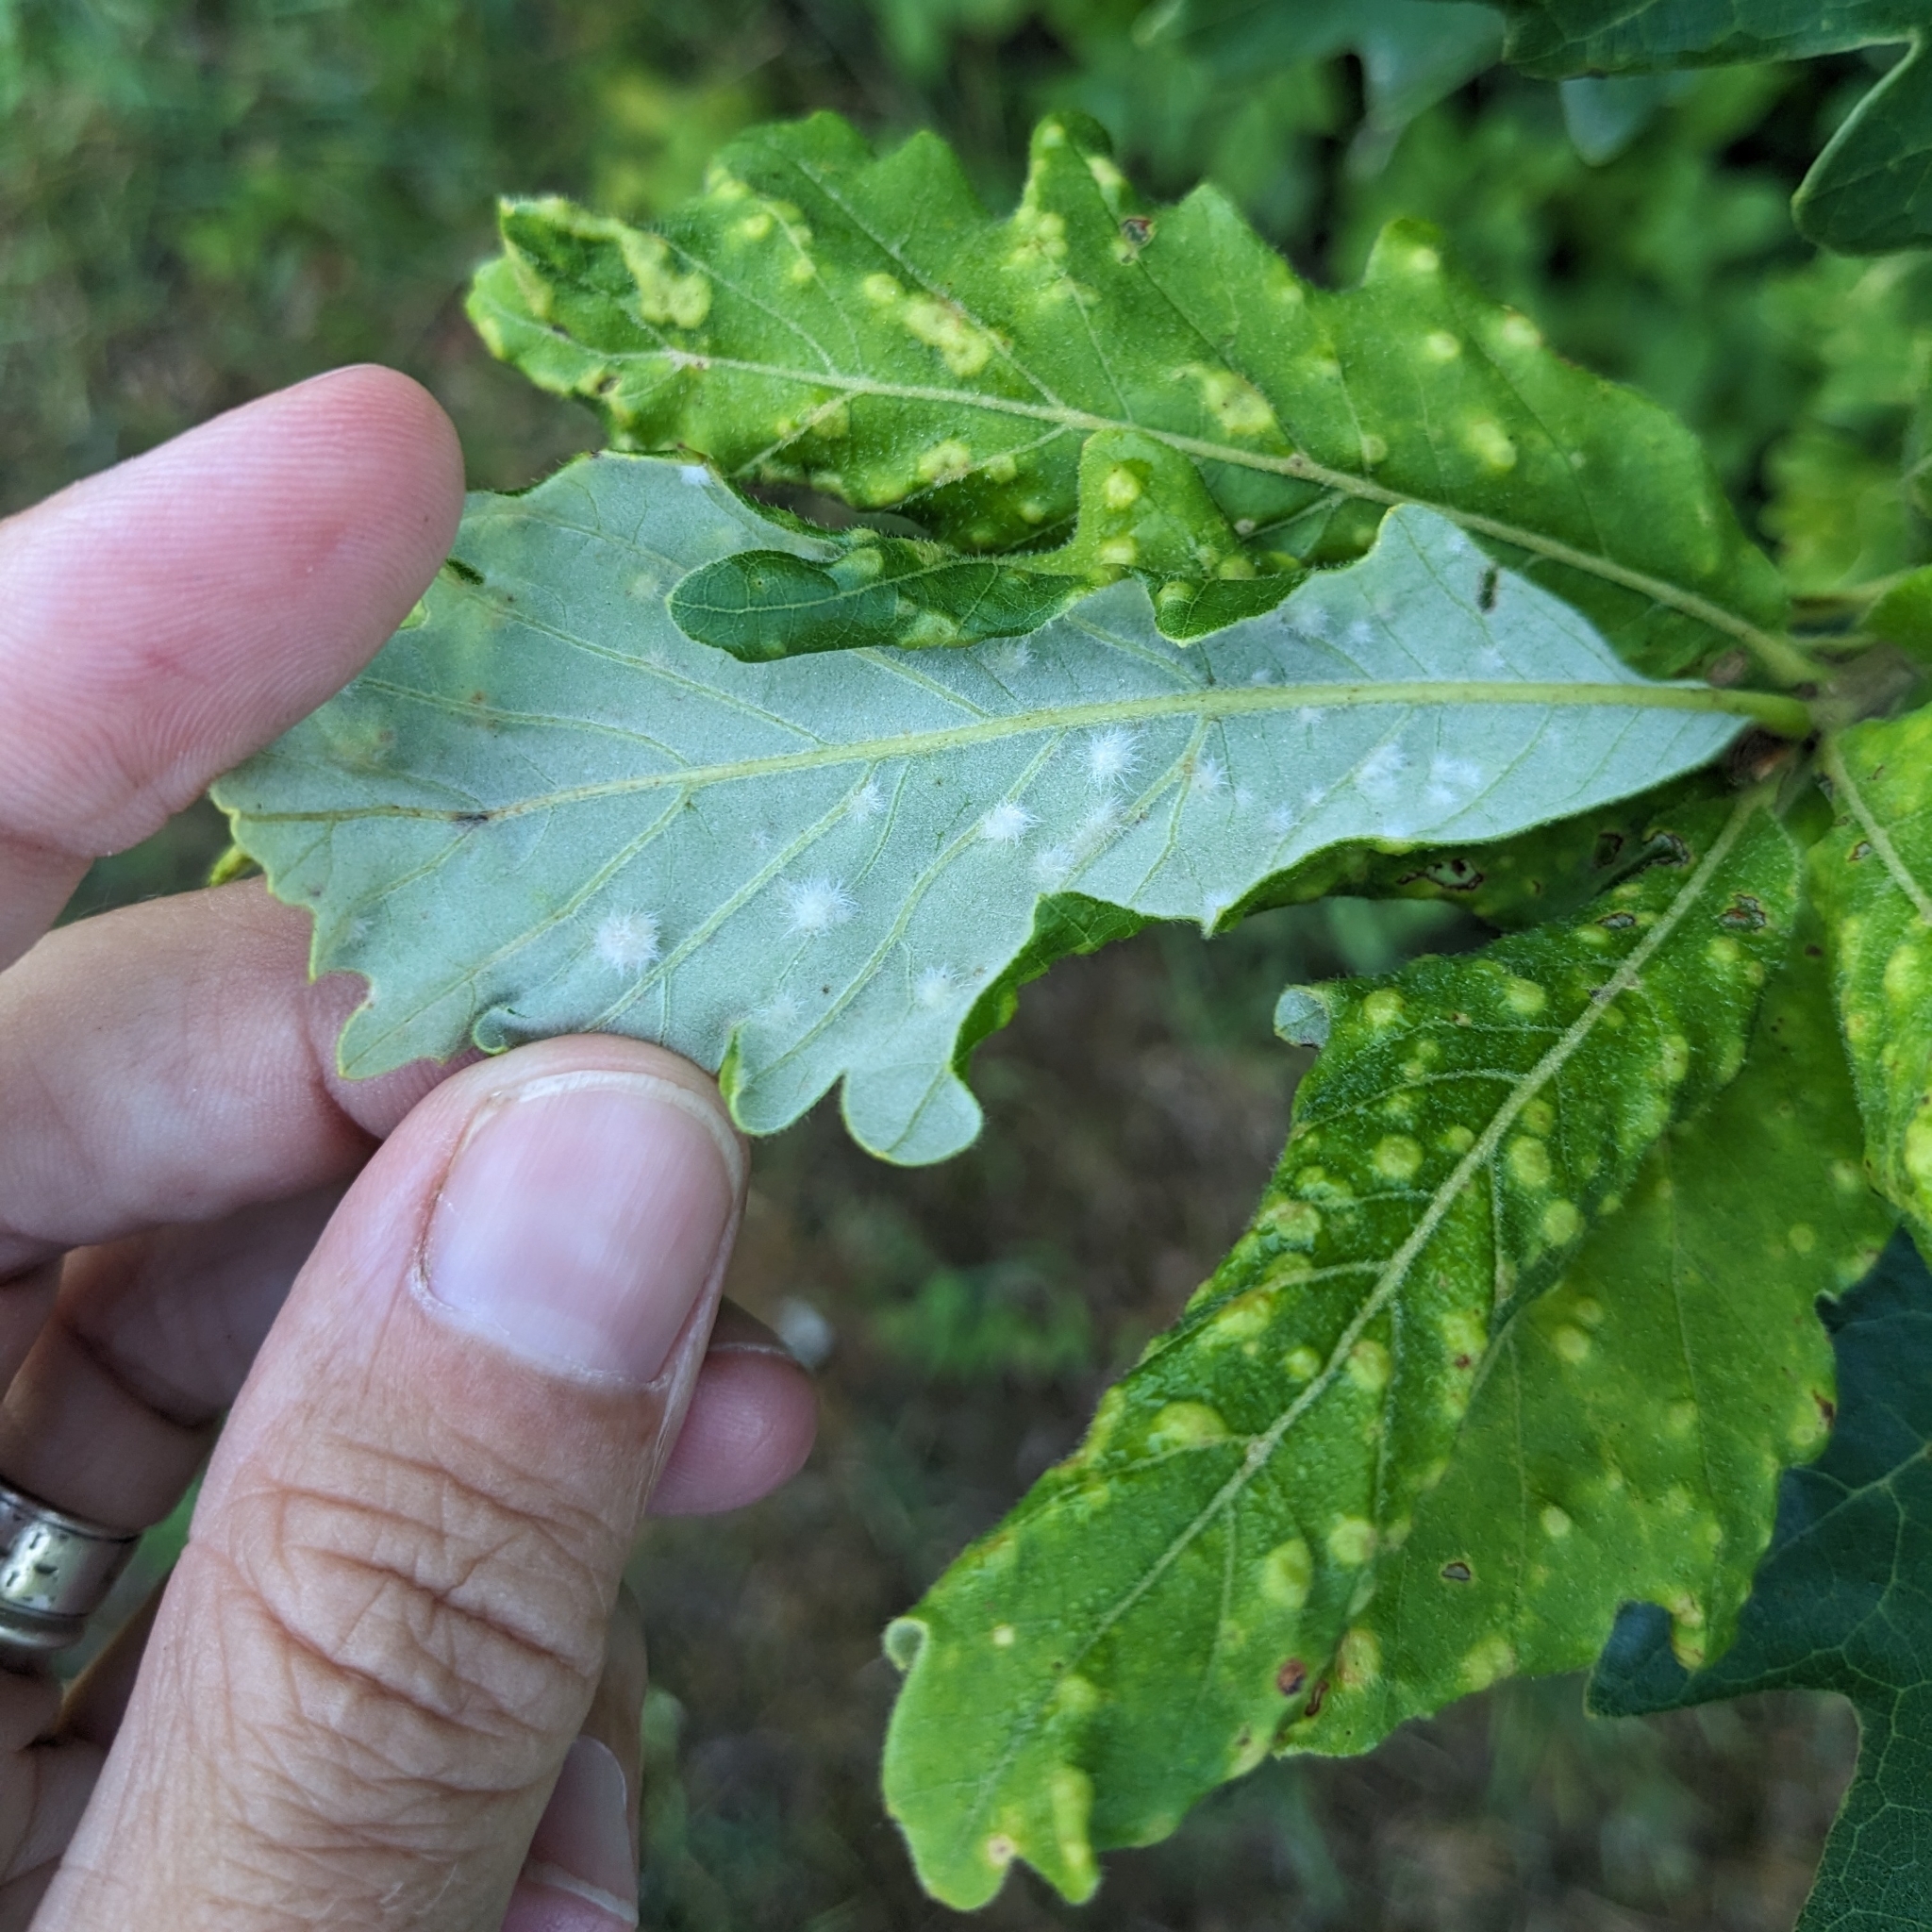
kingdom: Animalia
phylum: Arthropoda
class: Insecta
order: Hymenoptera
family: Cynipidae
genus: Neuroterus
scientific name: Neuroterus quercusverrucarum
